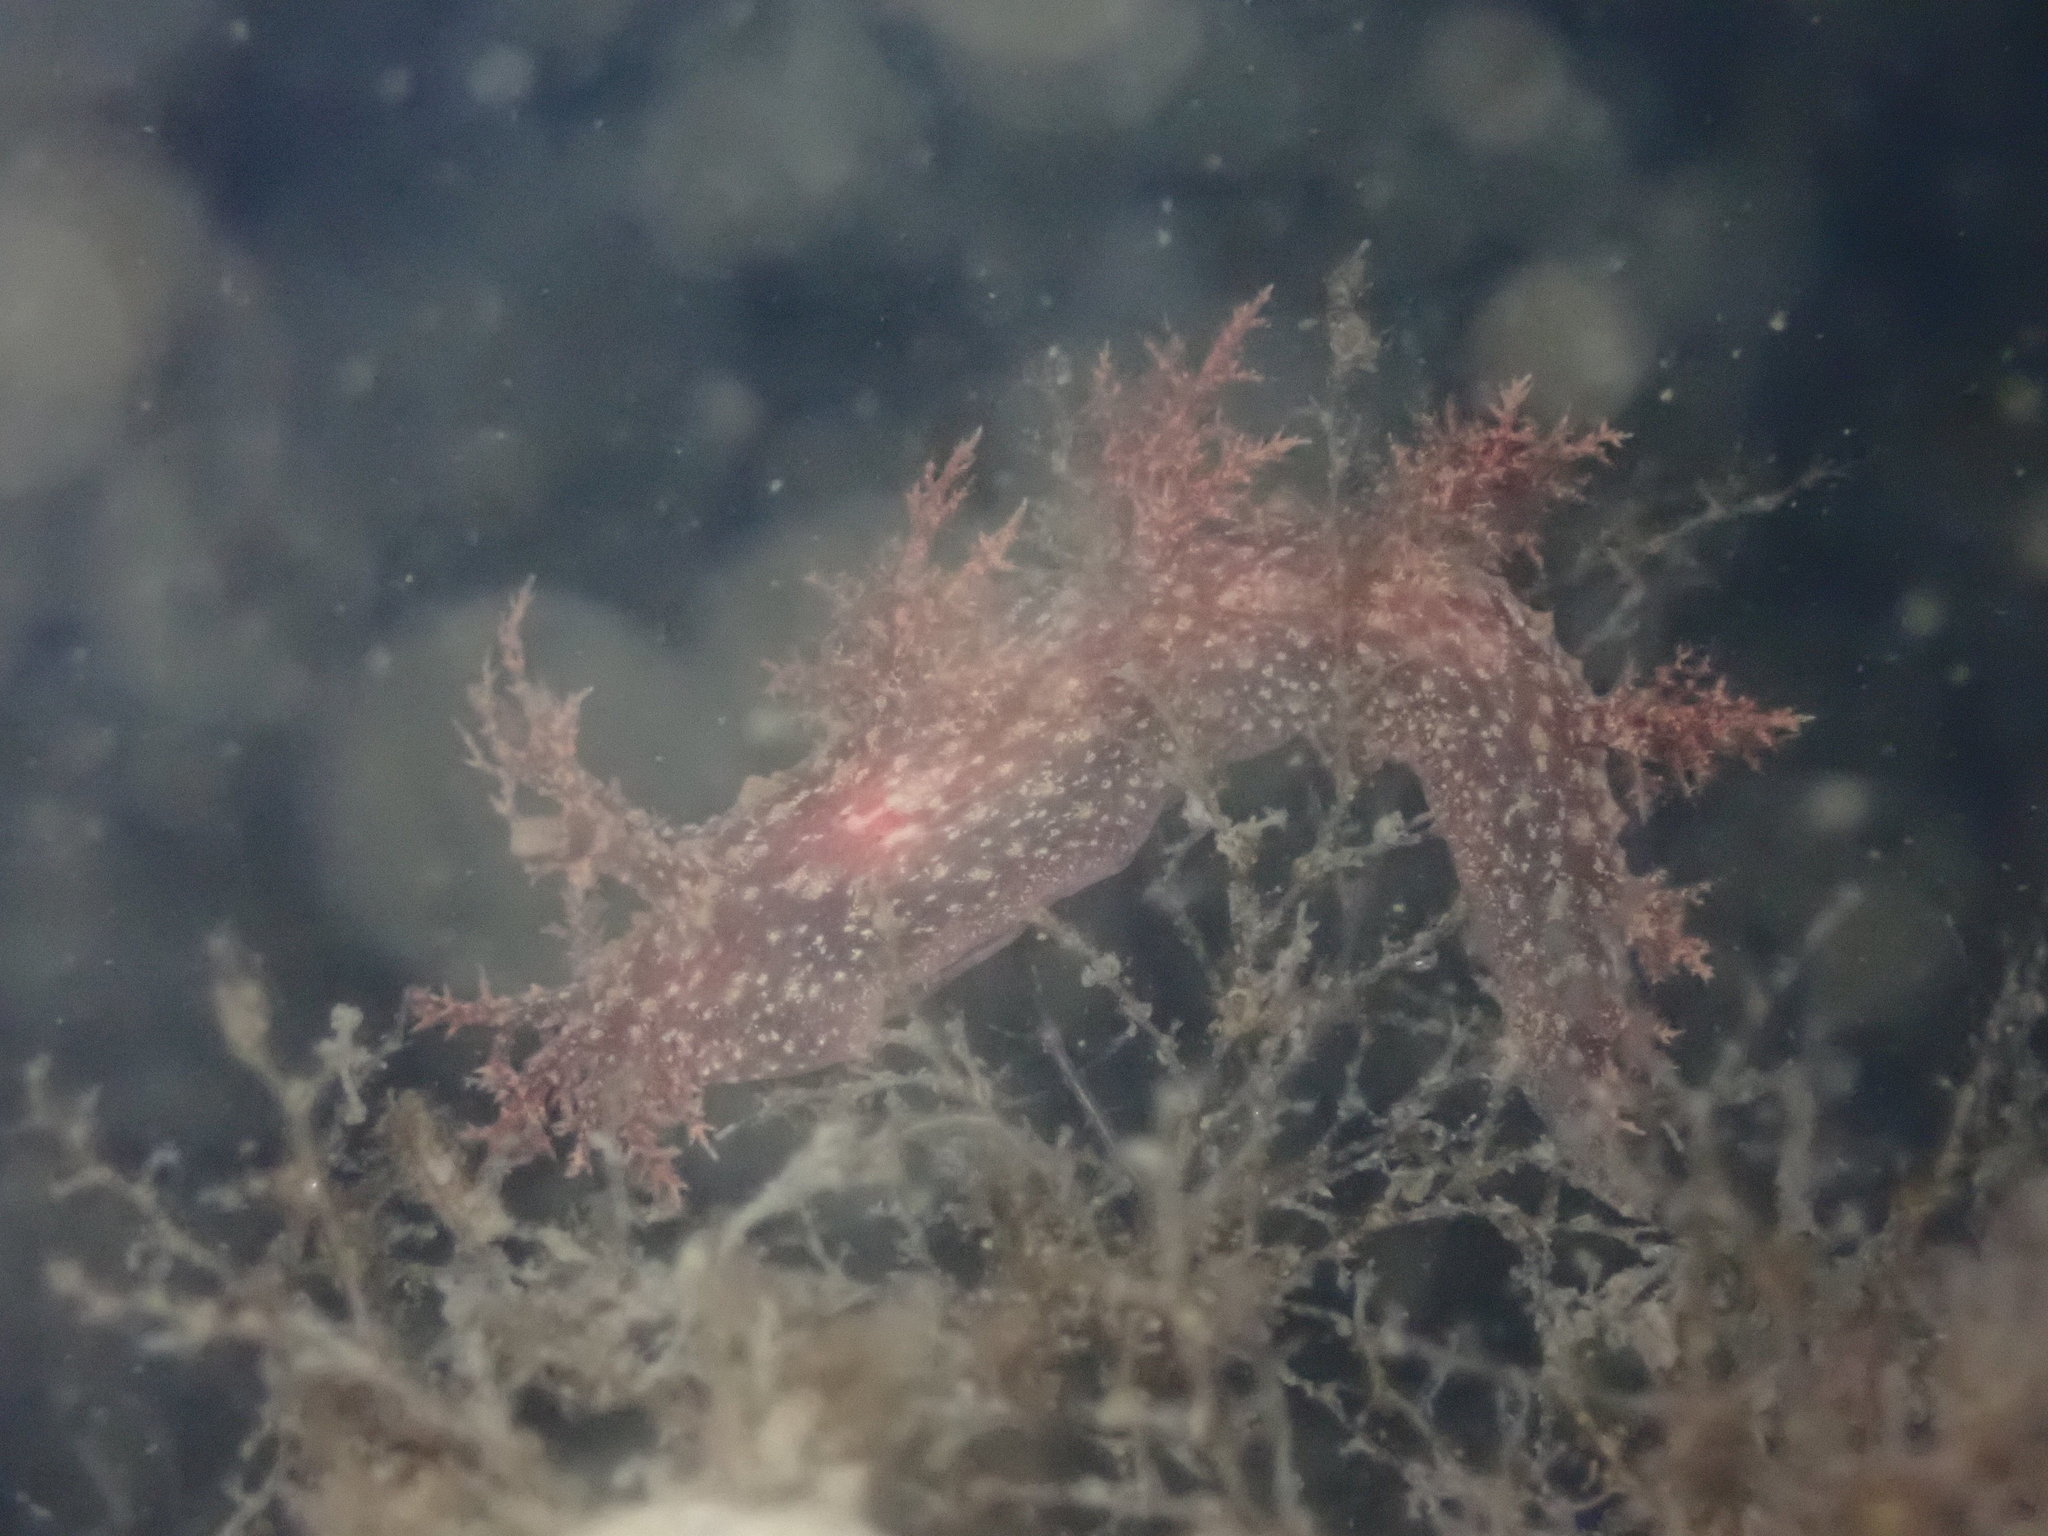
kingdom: Animalia
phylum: Mollusca
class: Gastropoda
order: Nudibranchia
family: Dendronotidae
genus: Dendronotus
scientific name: Dendronotus venustus
